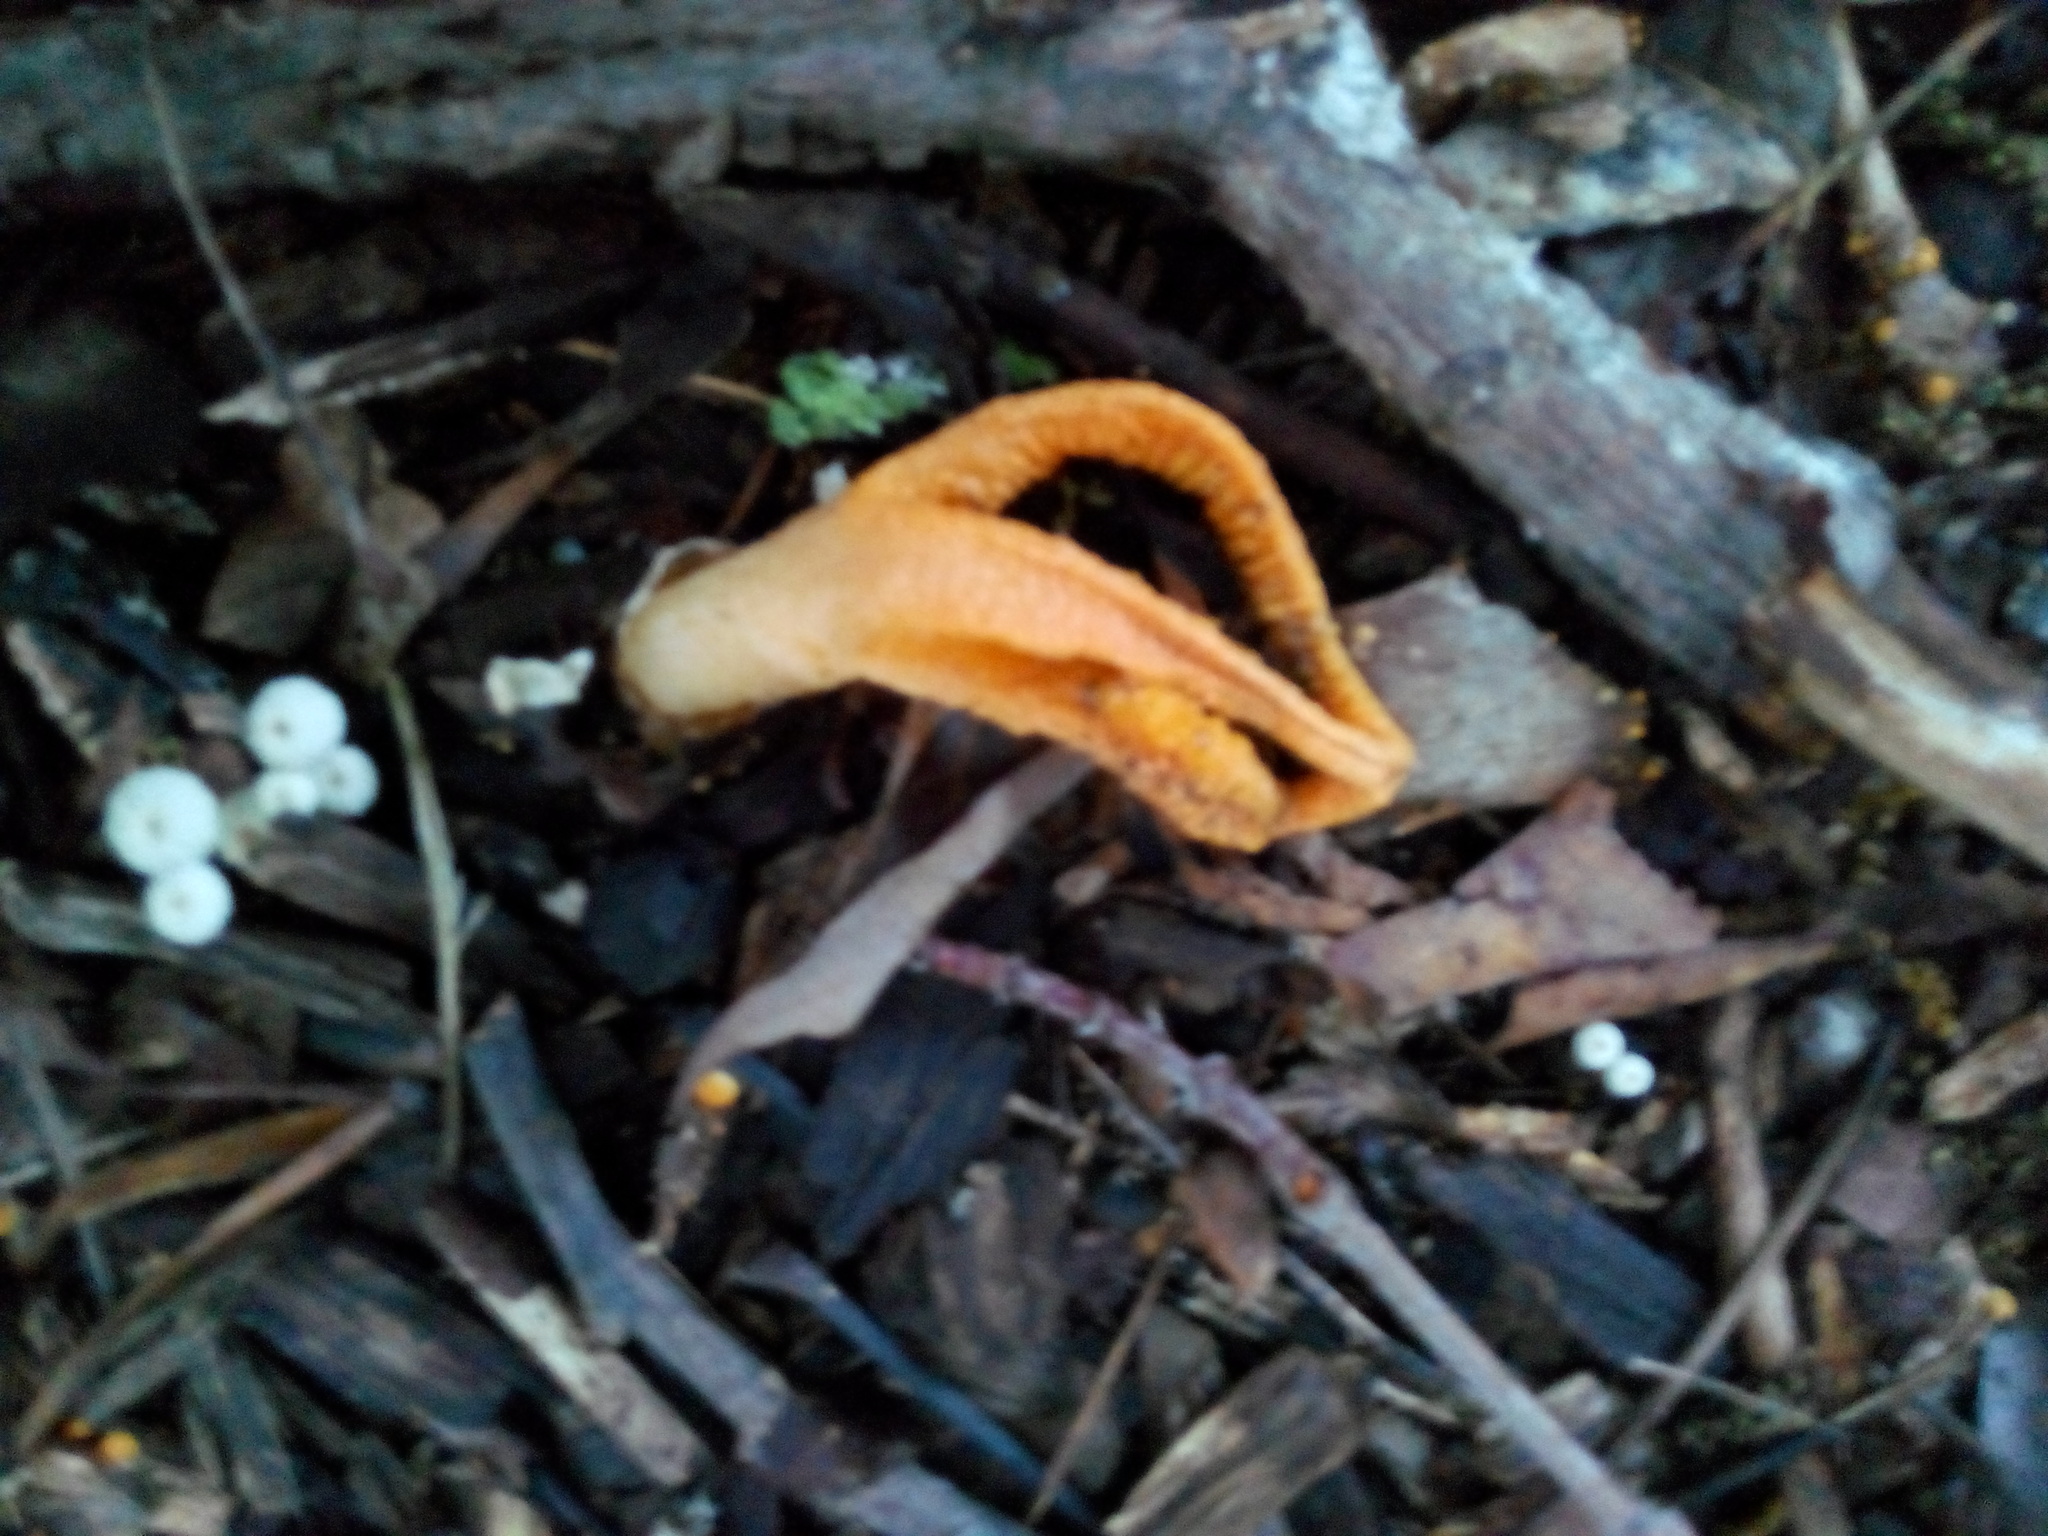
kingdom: Fungi
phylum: Basidiomycota
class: Agaricomycetes
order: Phallales
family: Phallaceae
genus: Pseudocolus
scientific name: Pseudocolus fusiformis
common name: Stinky squid
